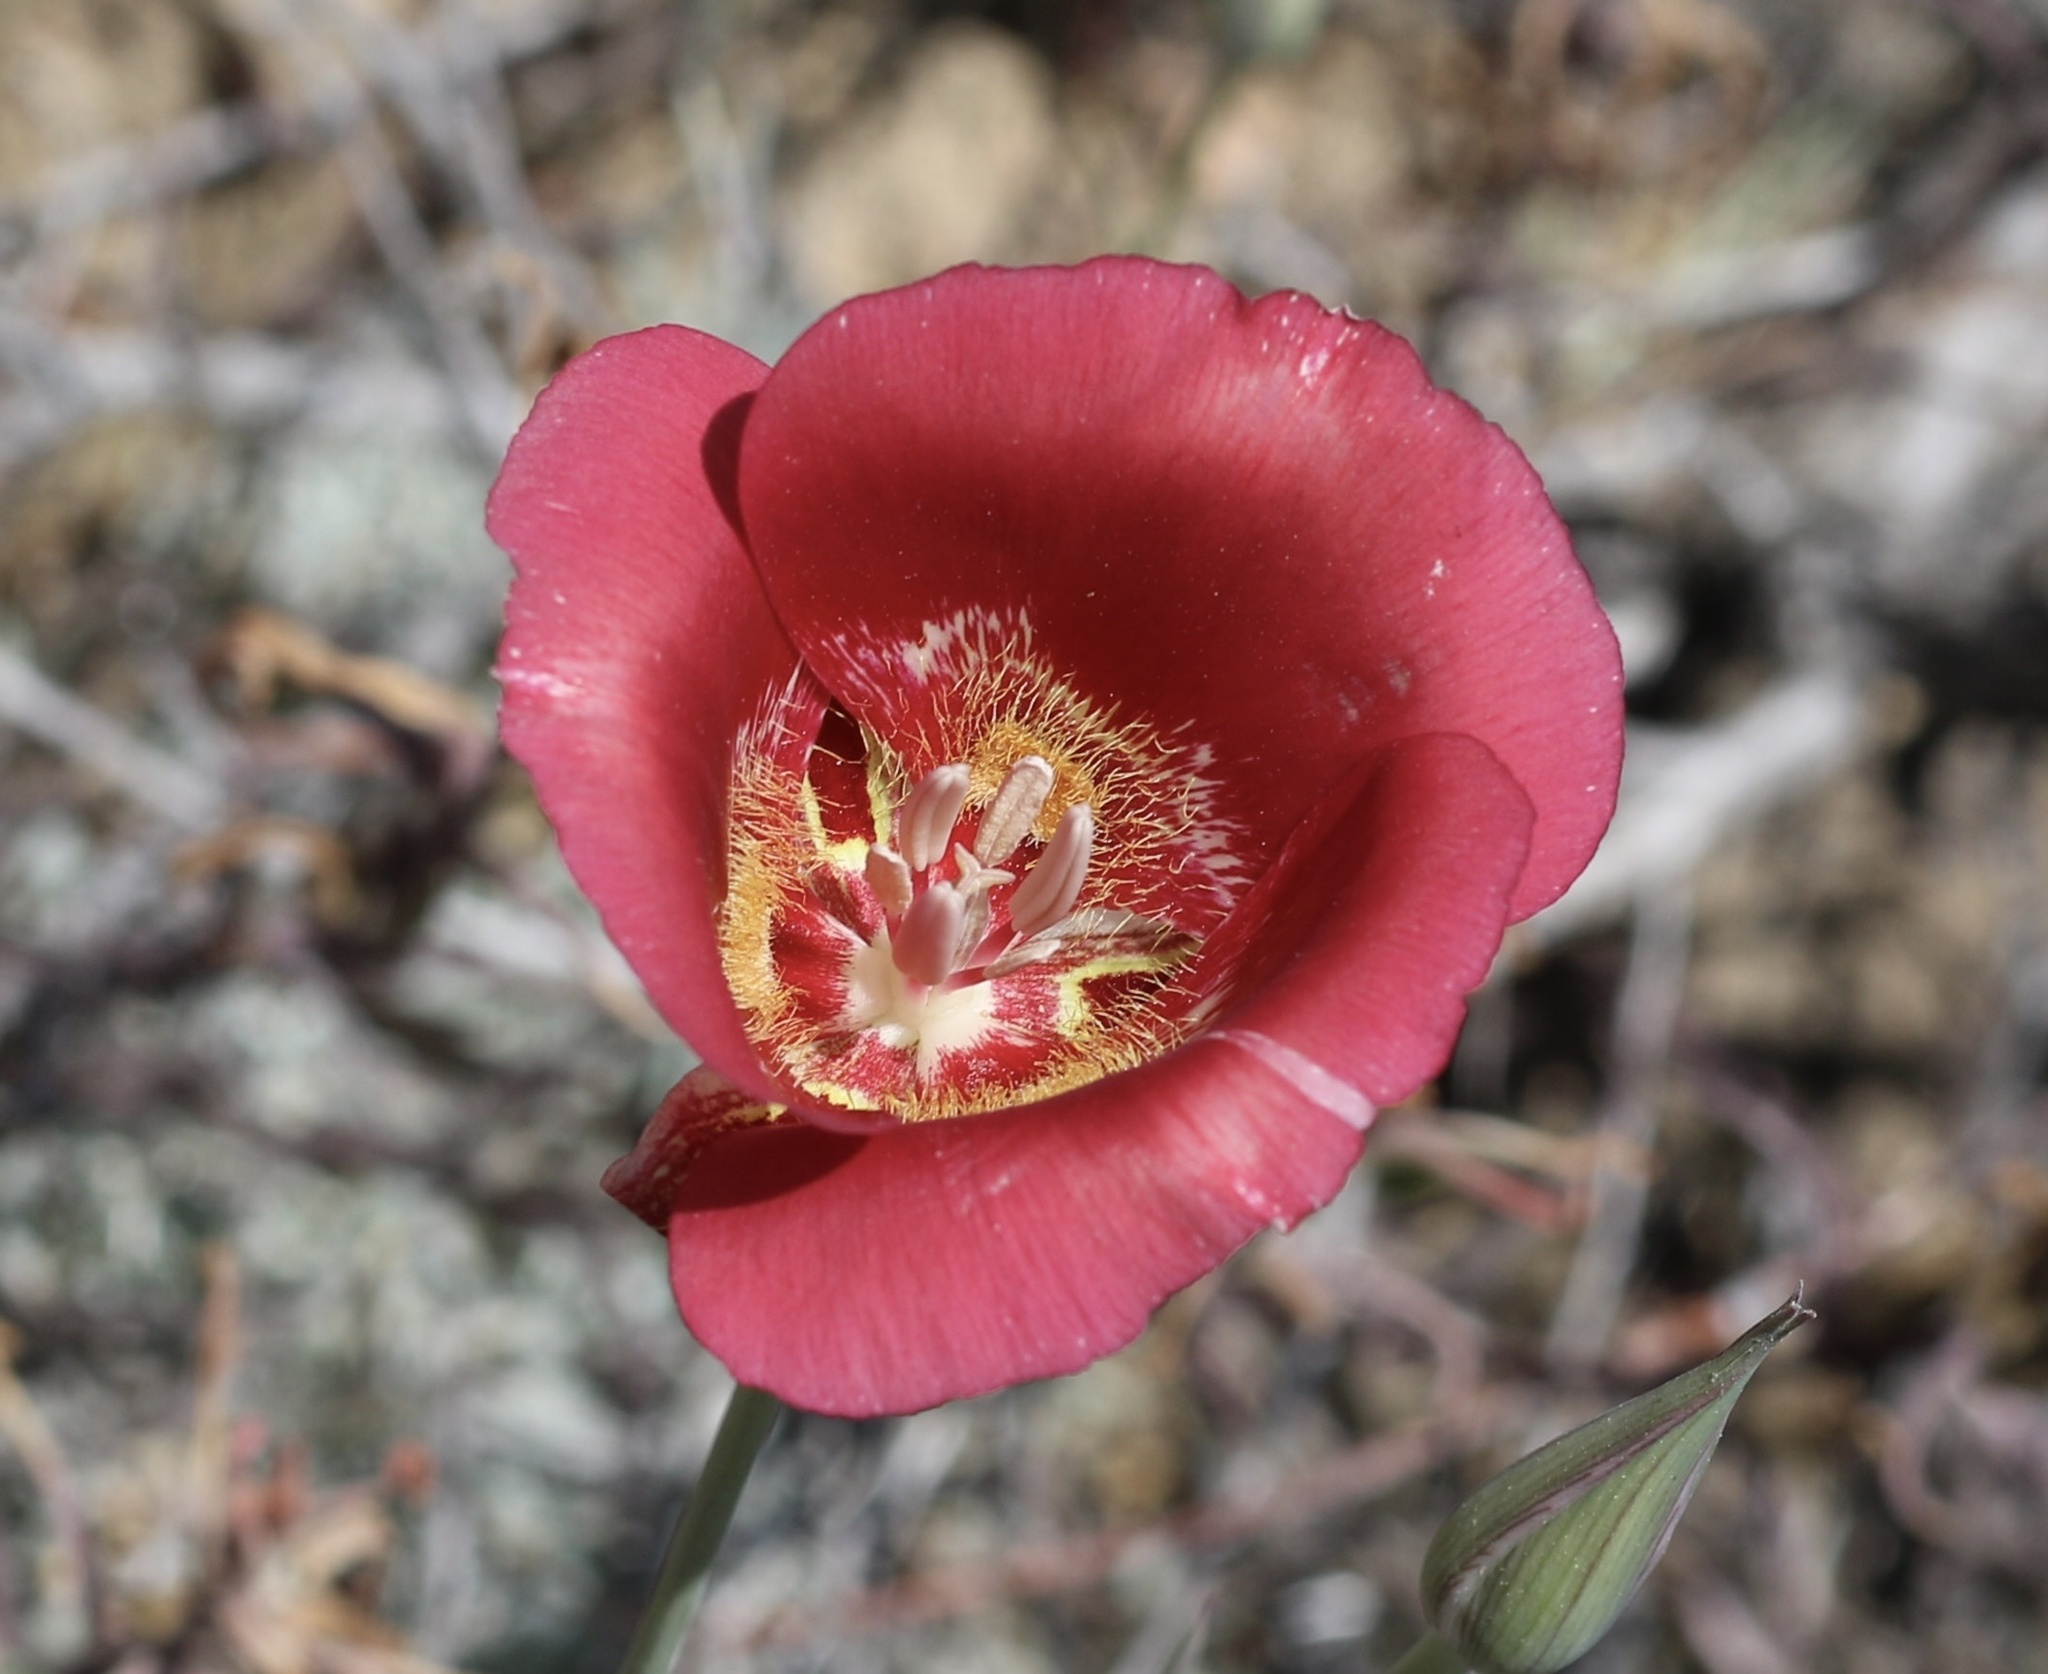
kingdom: Plantae
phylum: Tracheophyta
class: Liliopsida
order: Liliales
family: Liliaceae
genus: Calochortus
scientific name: Calochortus venustus
